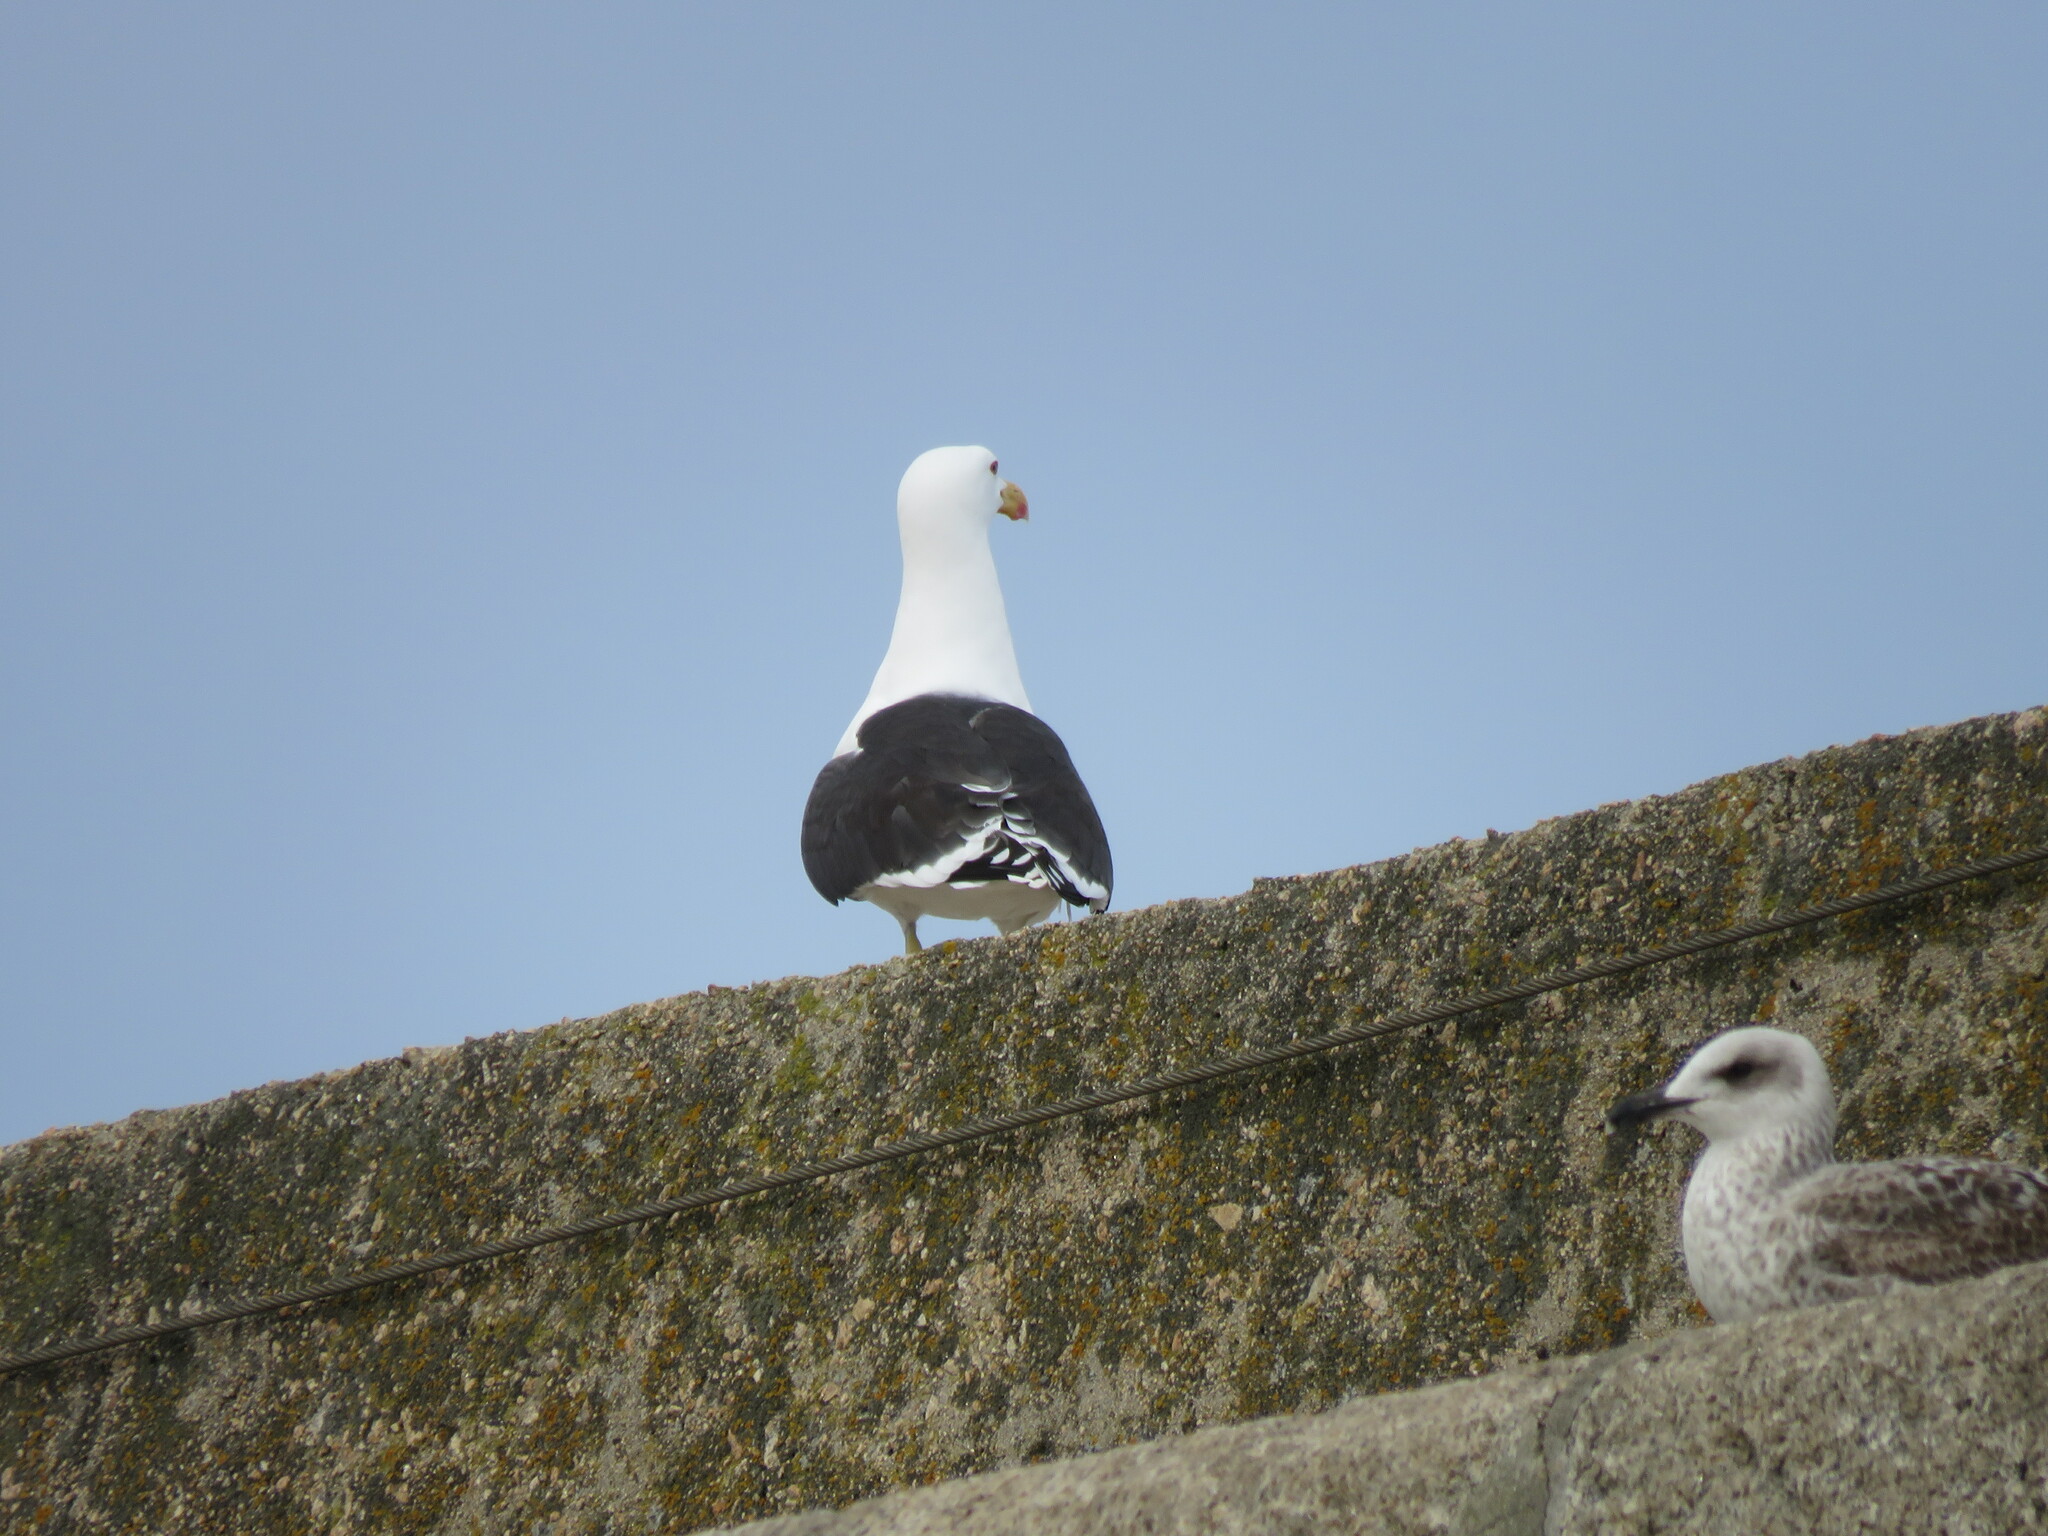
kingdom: Animalia
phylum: Chordata
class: Aves
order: Charadriiformes
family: Laridae
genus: Larus
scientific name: Larus marinus
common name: Great black-backed gull
